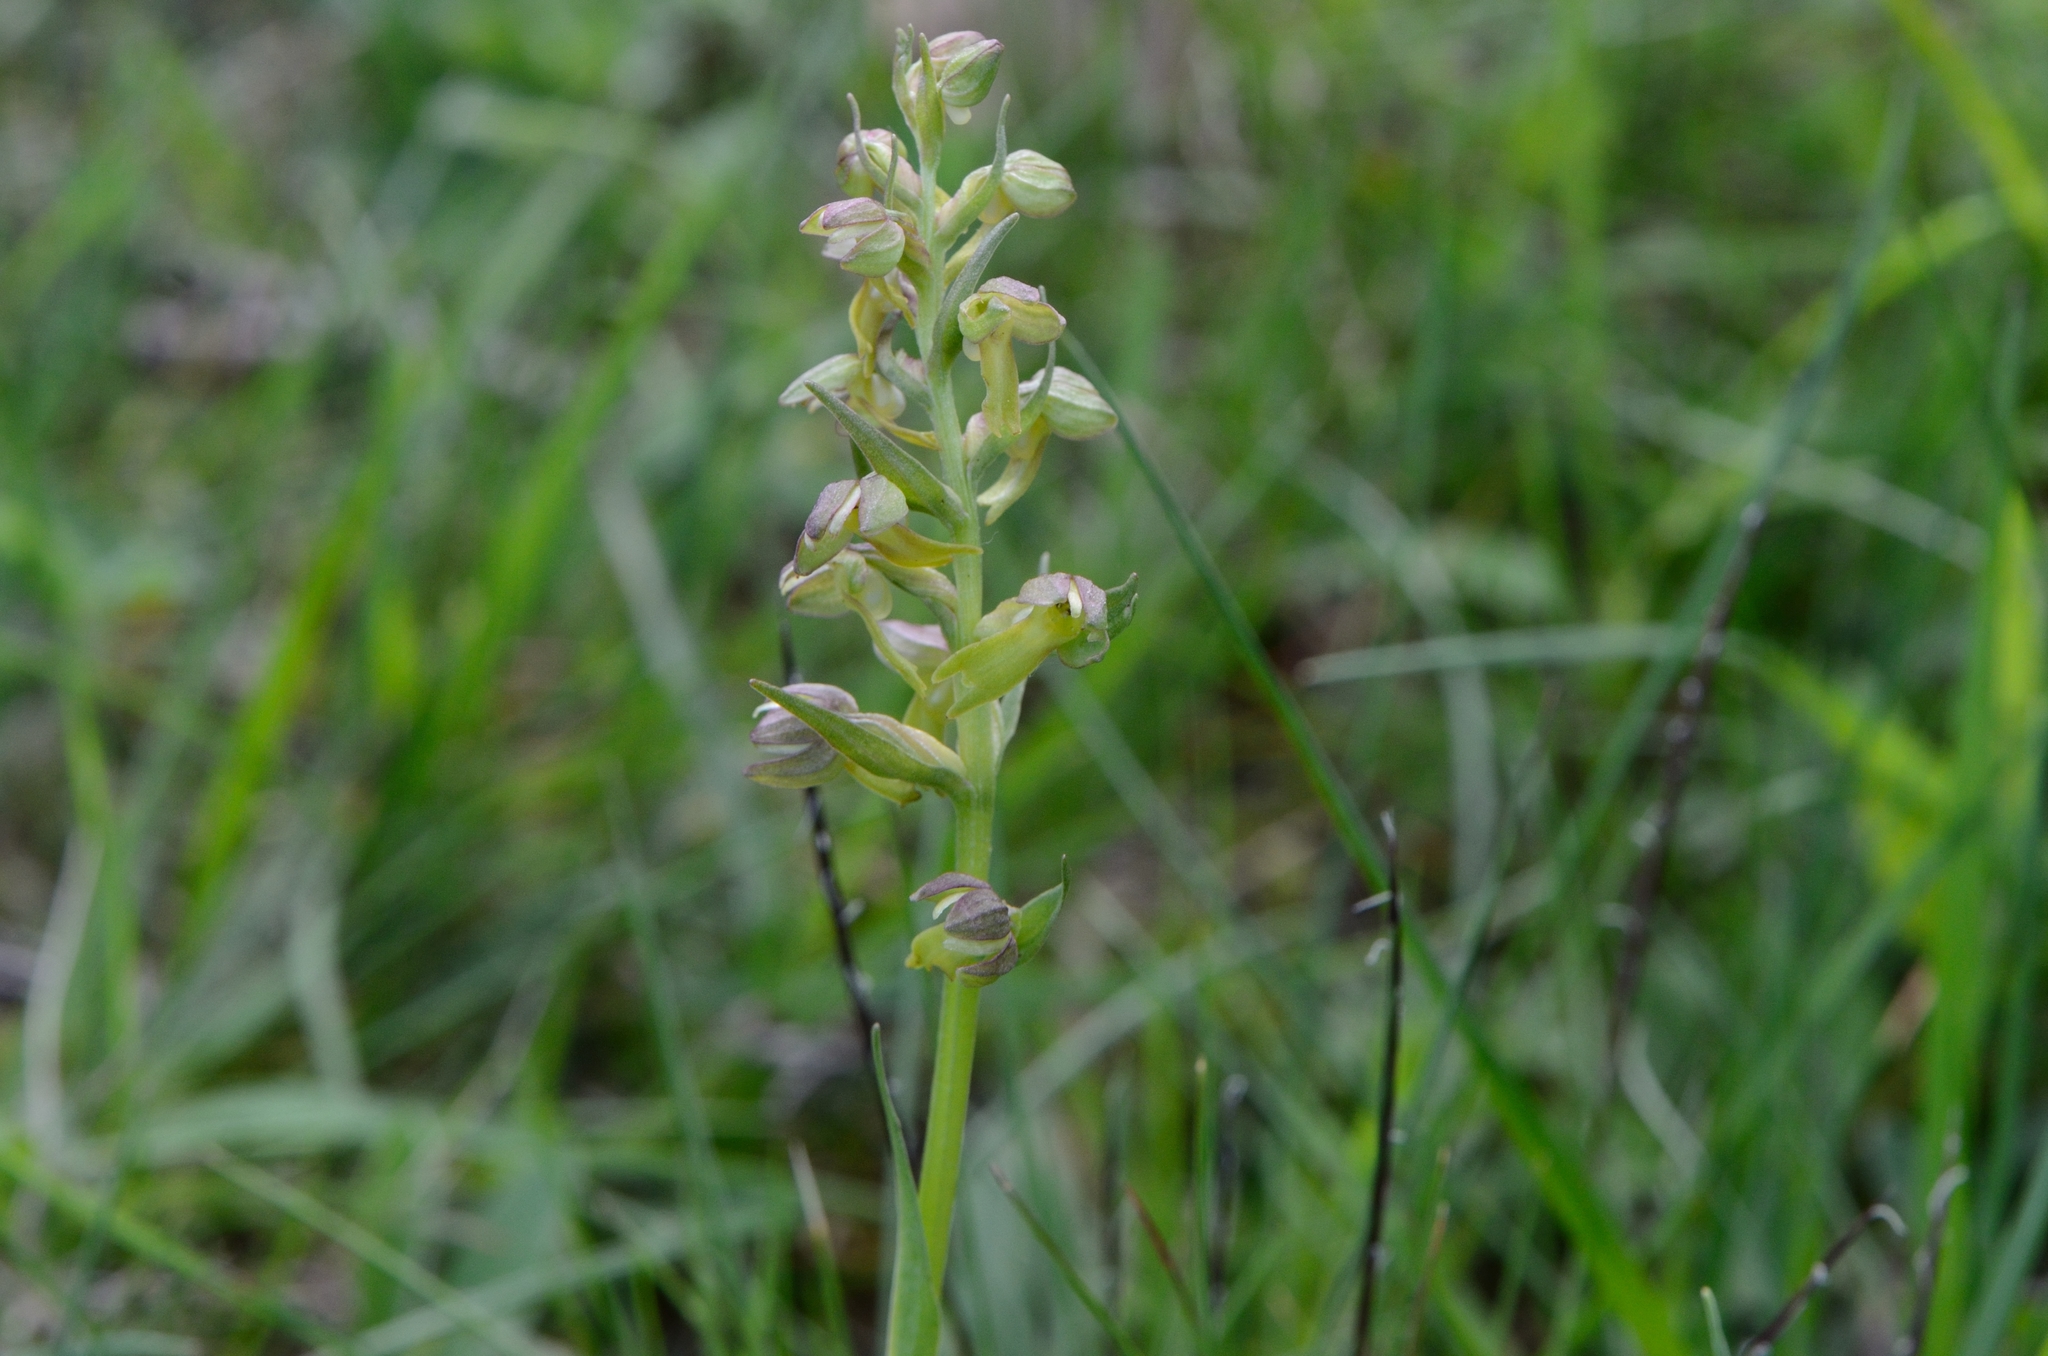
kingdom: Plantae
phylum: Tracheophyta
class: Liliopsida
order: Asparagales
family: Orchidaceae
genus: Dactylorhiza
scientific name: Dactylorhiza viridis
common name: Longbract frog orchid
